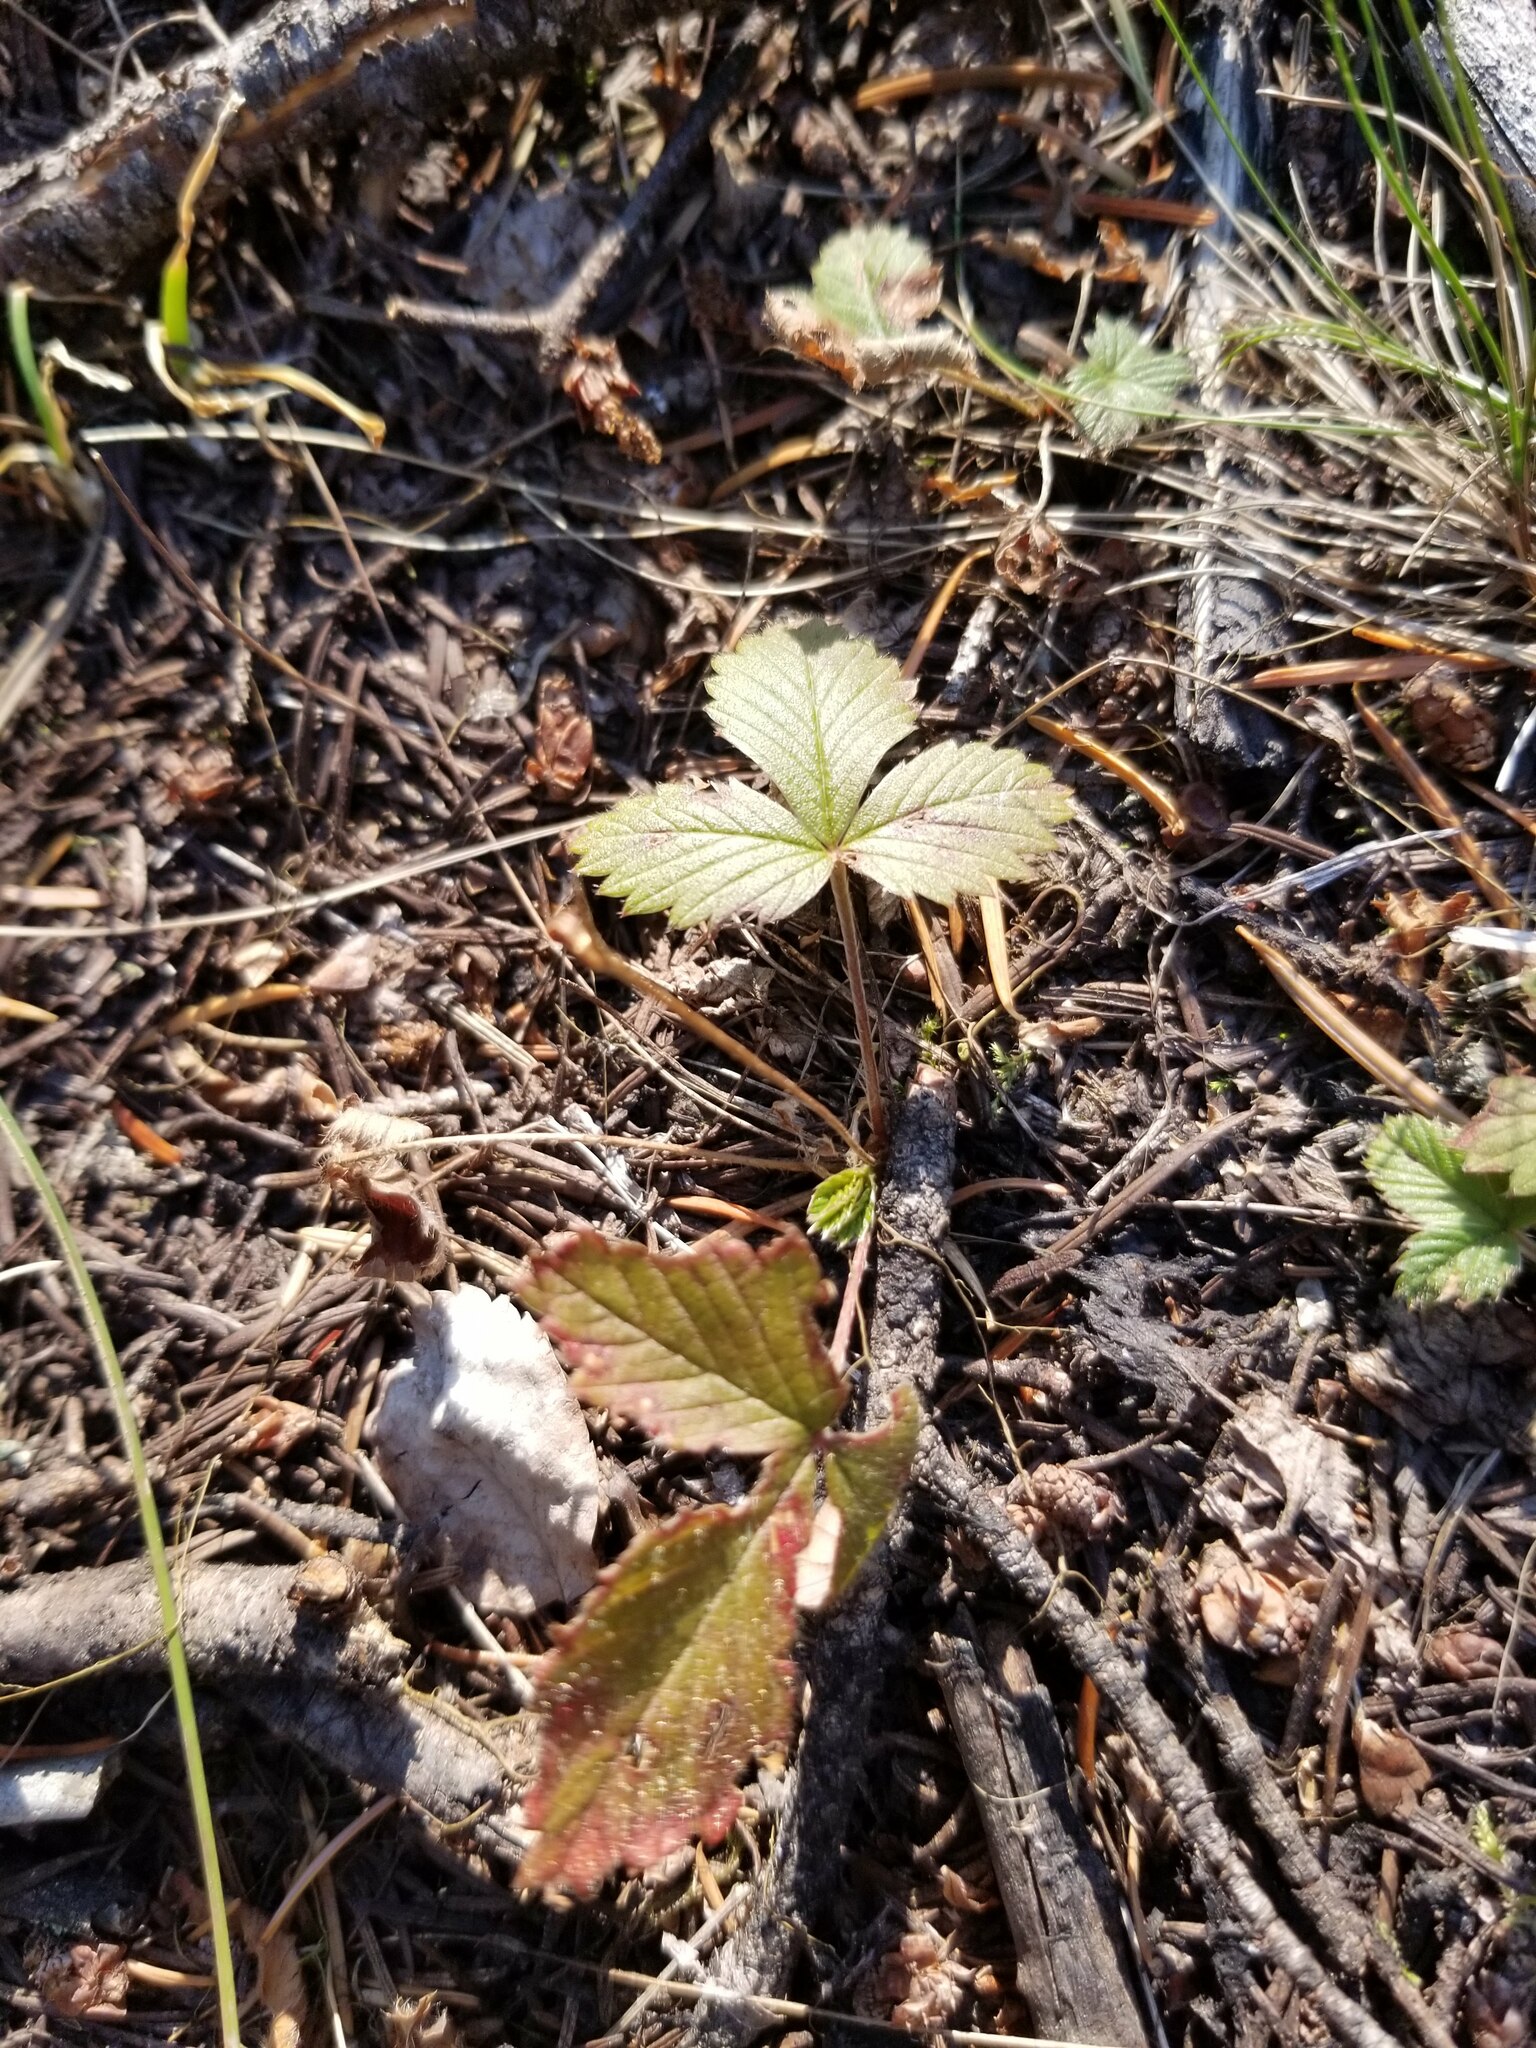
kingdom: Plantae
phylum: Tracheophyta
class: Magnoliopsida
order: Rosales
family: Rosaceae
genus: Fragaria
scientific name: Fragaria vesca
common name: Wild strawberry
